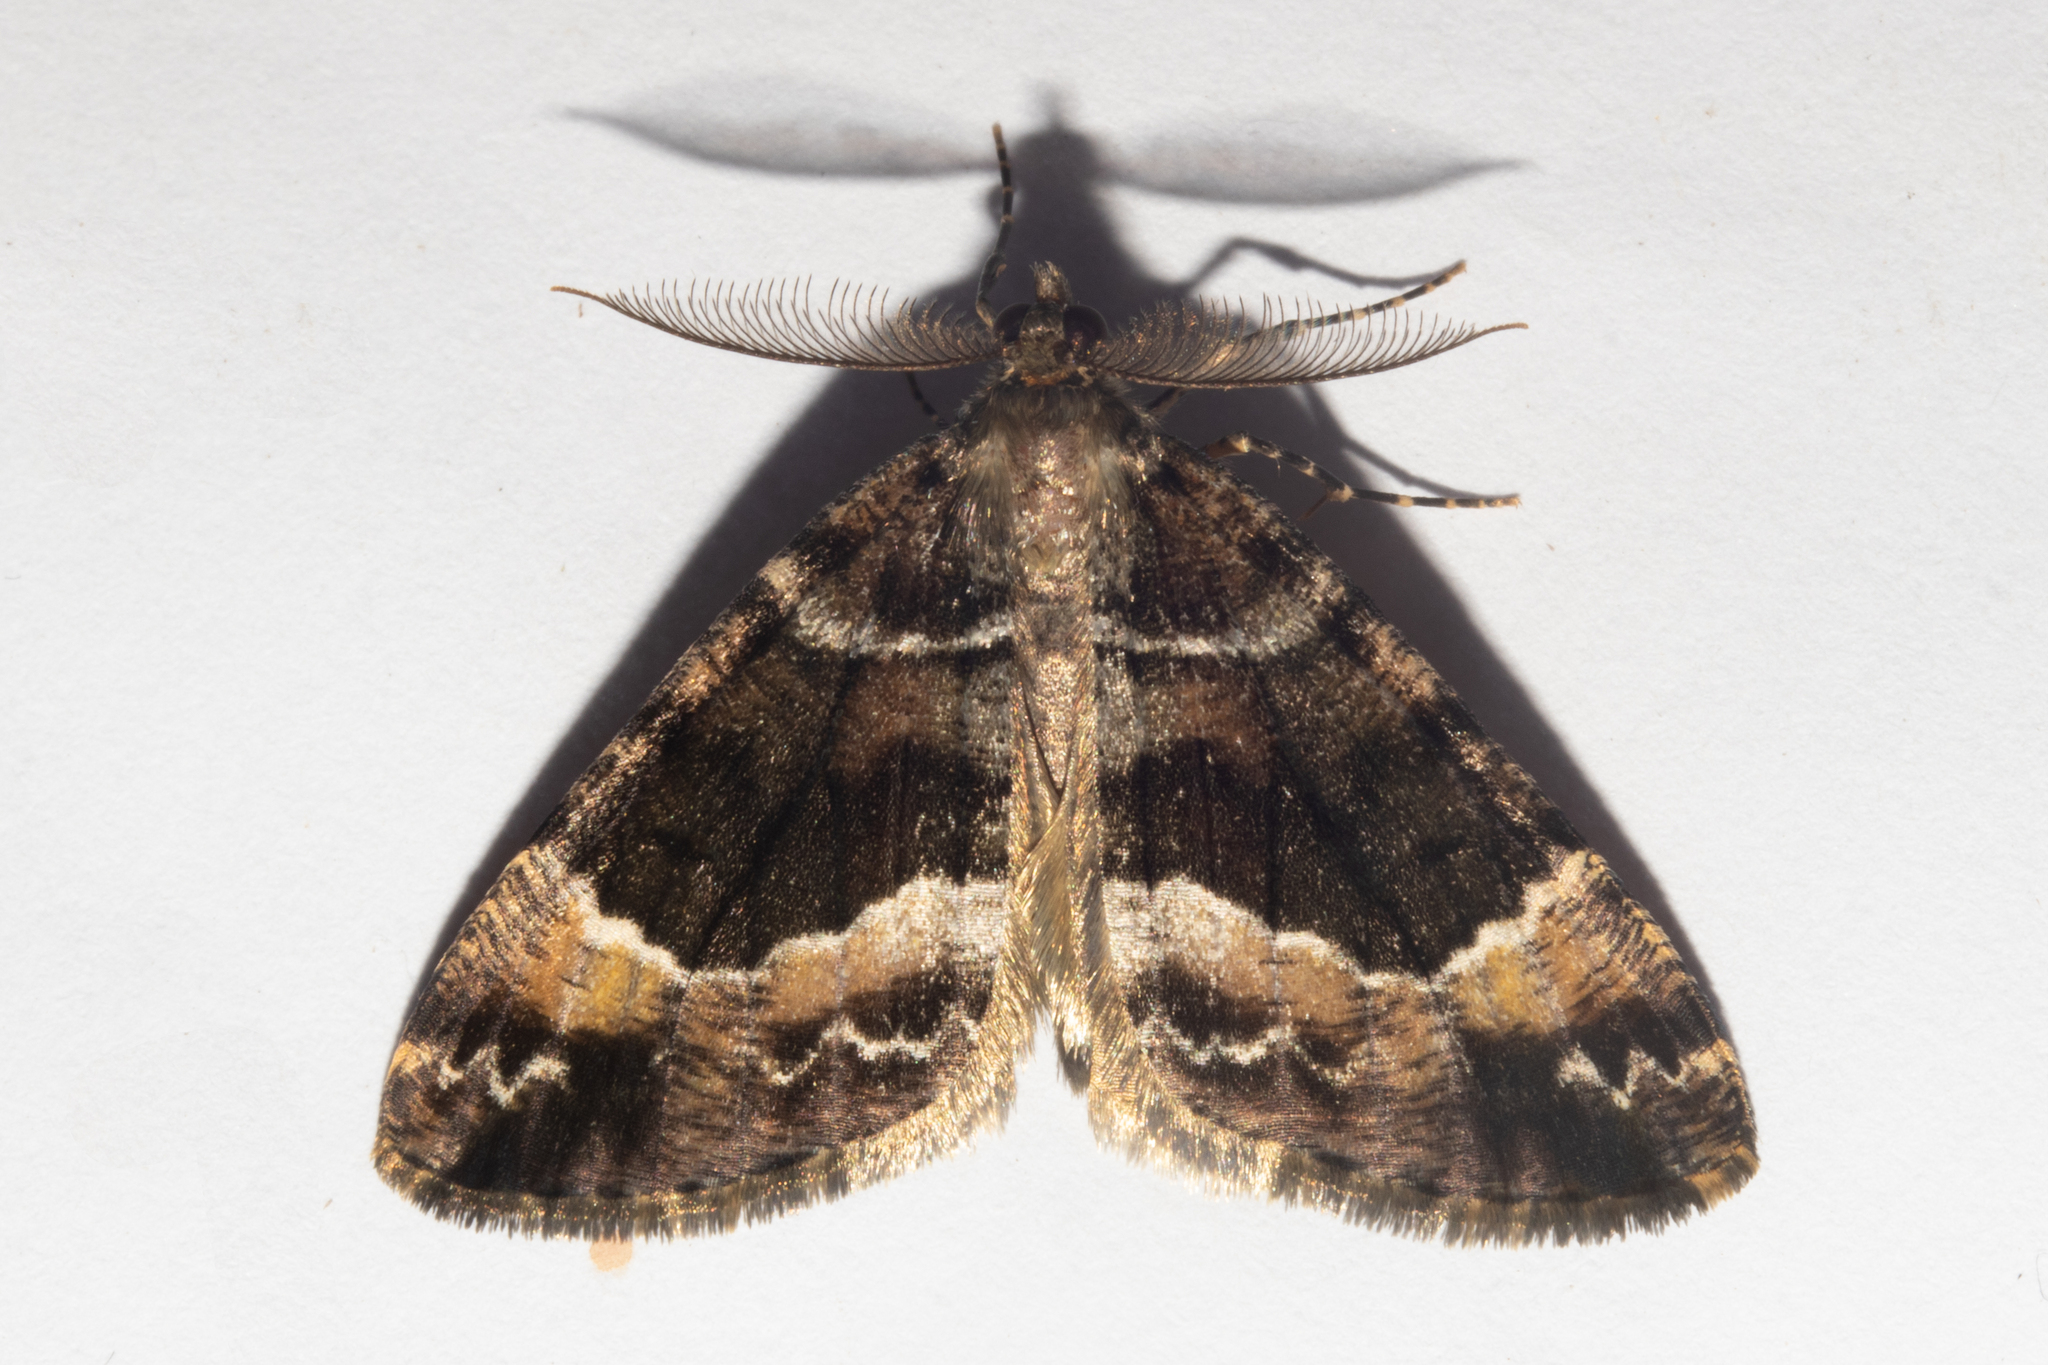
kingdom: Animalia
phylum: Arthropoda
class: Insecta
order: Lepidoptera
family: Geometridae
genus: Pseudocoremia
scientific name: Pseudocoremia productata
